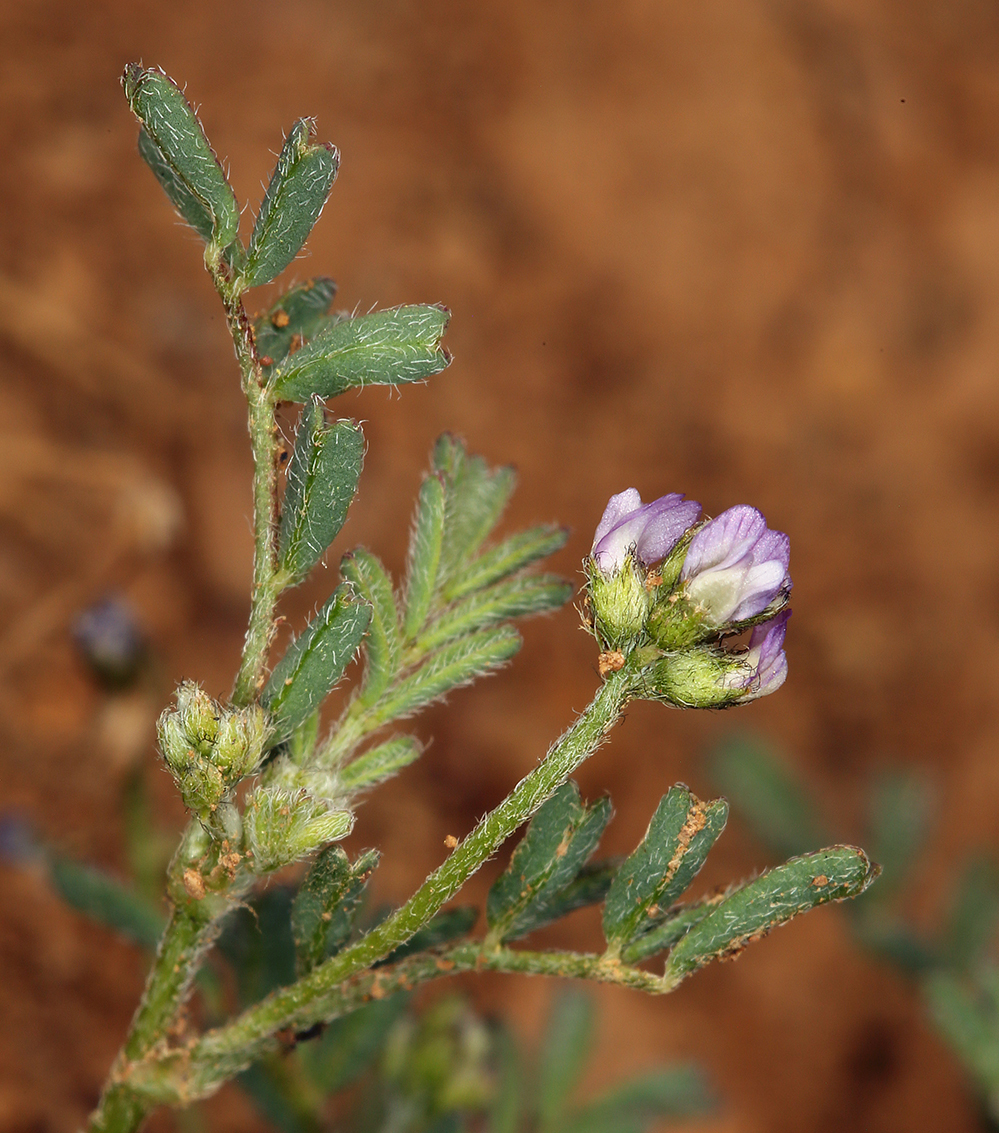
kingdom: Plantae
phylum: Tracheophyta
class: Magnoliopsida
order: Fabales
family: Fabaceae
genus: Astragalus
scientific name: Astragalus gambelianus
